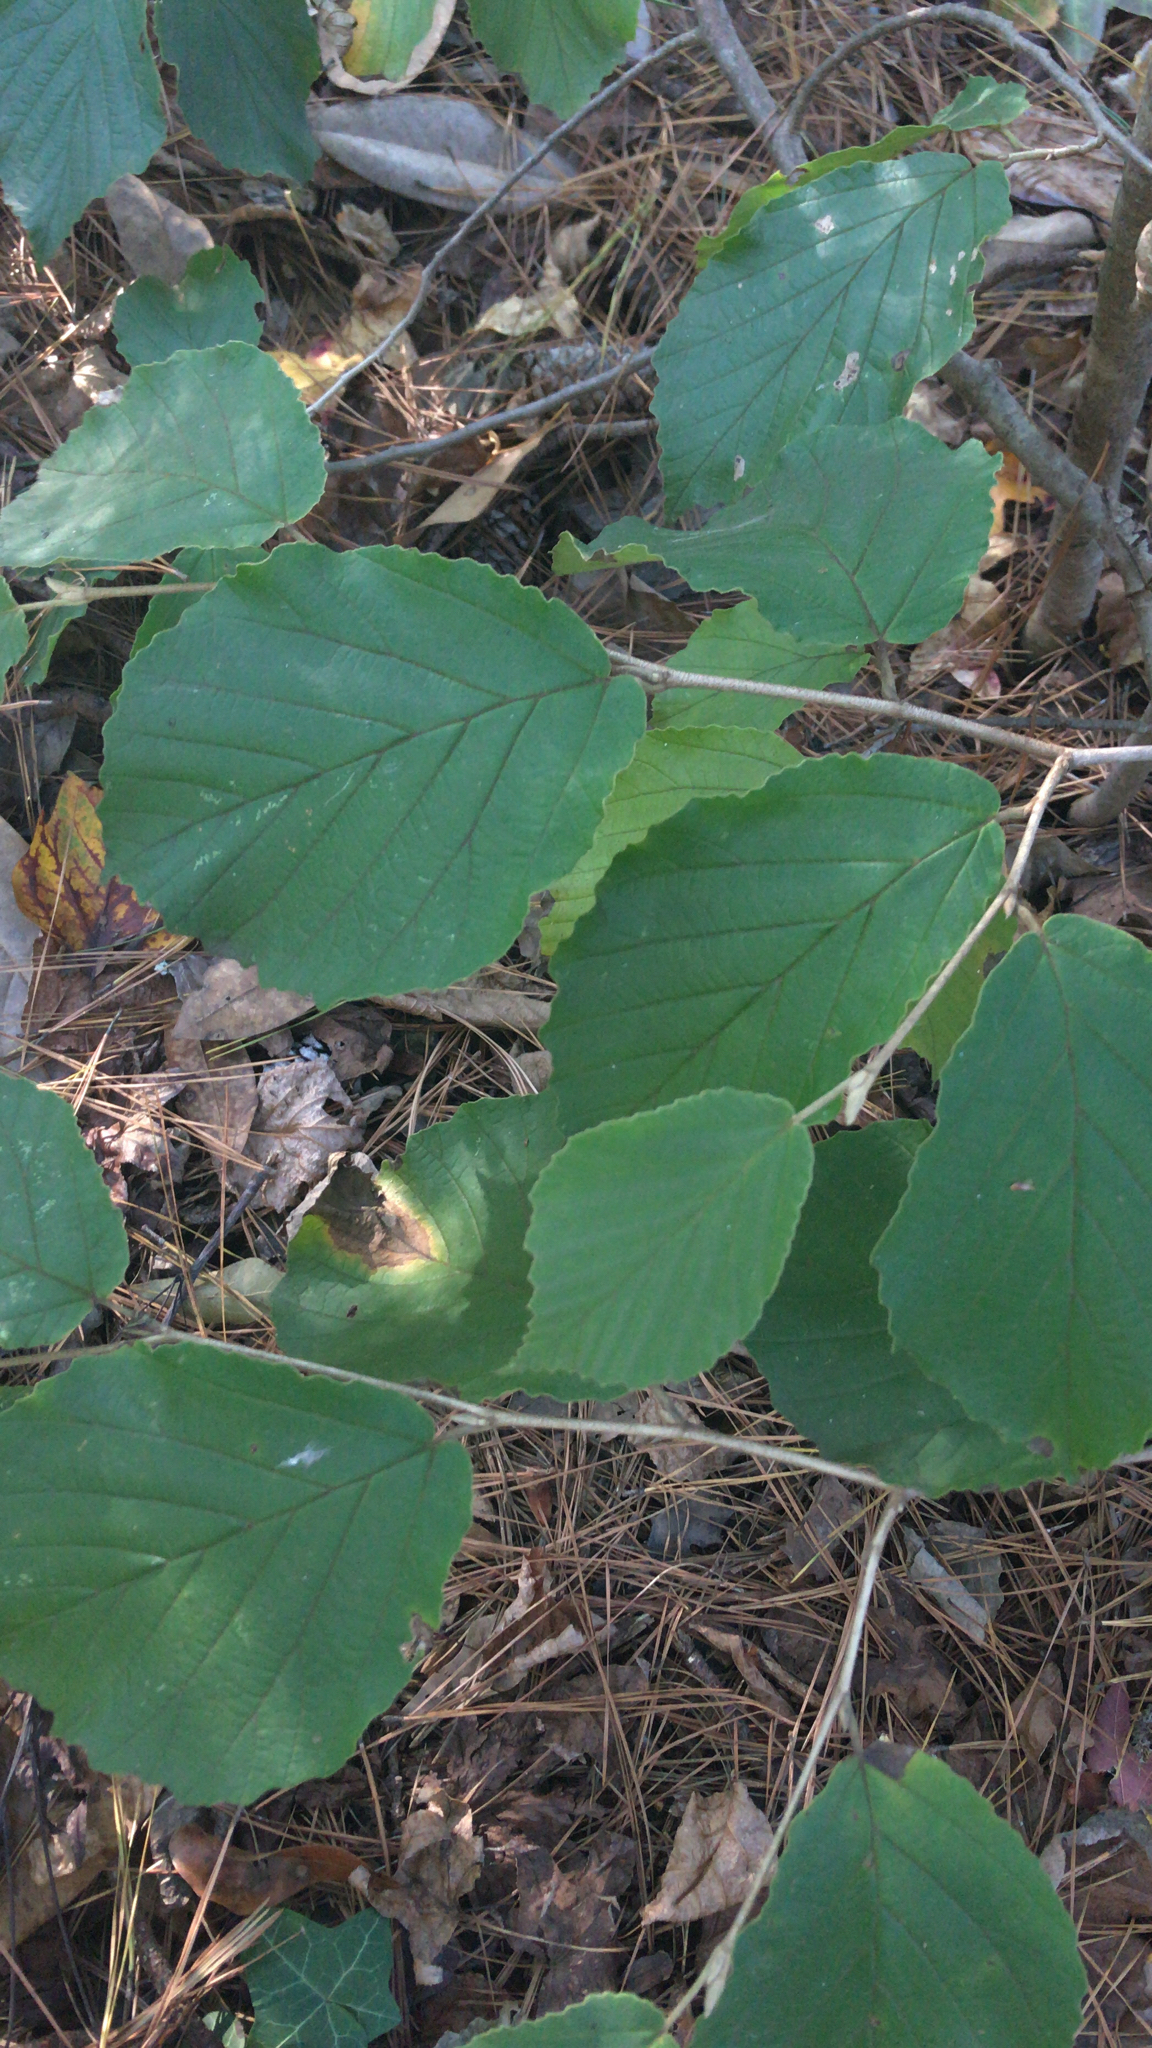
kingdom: Plantae
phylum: Tracheophyta
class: Magnoliopsida
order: Saxifragales
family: Hamamelidaceae
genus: Hamamelis
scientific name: Hamamelis virginiana
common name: Witch-hazel
